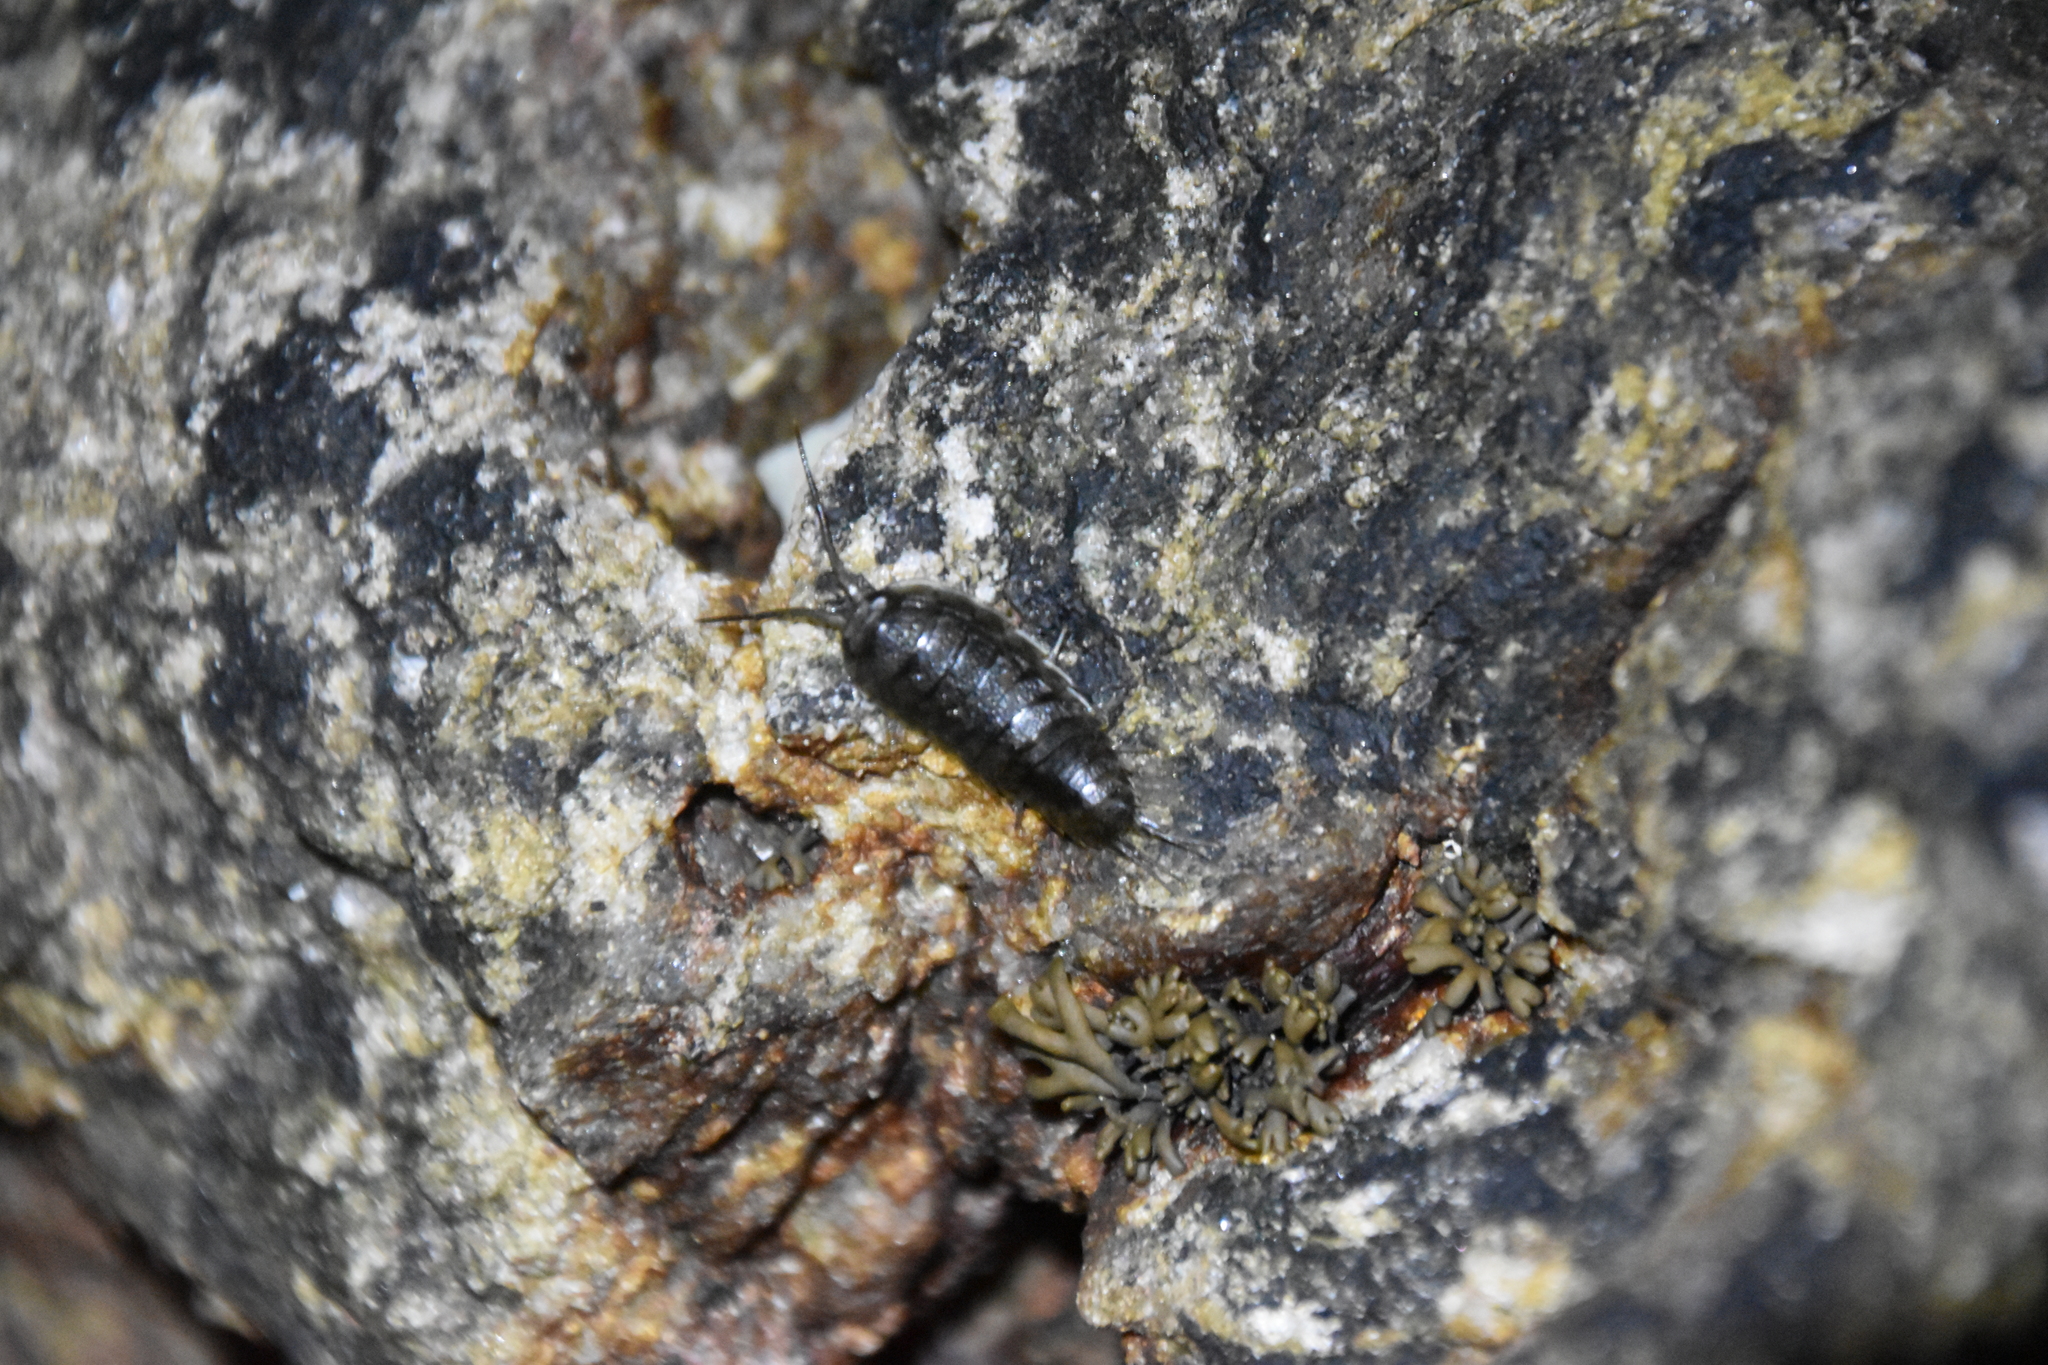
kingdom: Animalia
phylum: Arthropoda
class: Malacostraca
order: Isopoda
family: Ligiidae
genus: Ligia
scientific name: Ligia oceanica
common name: Sea slater
